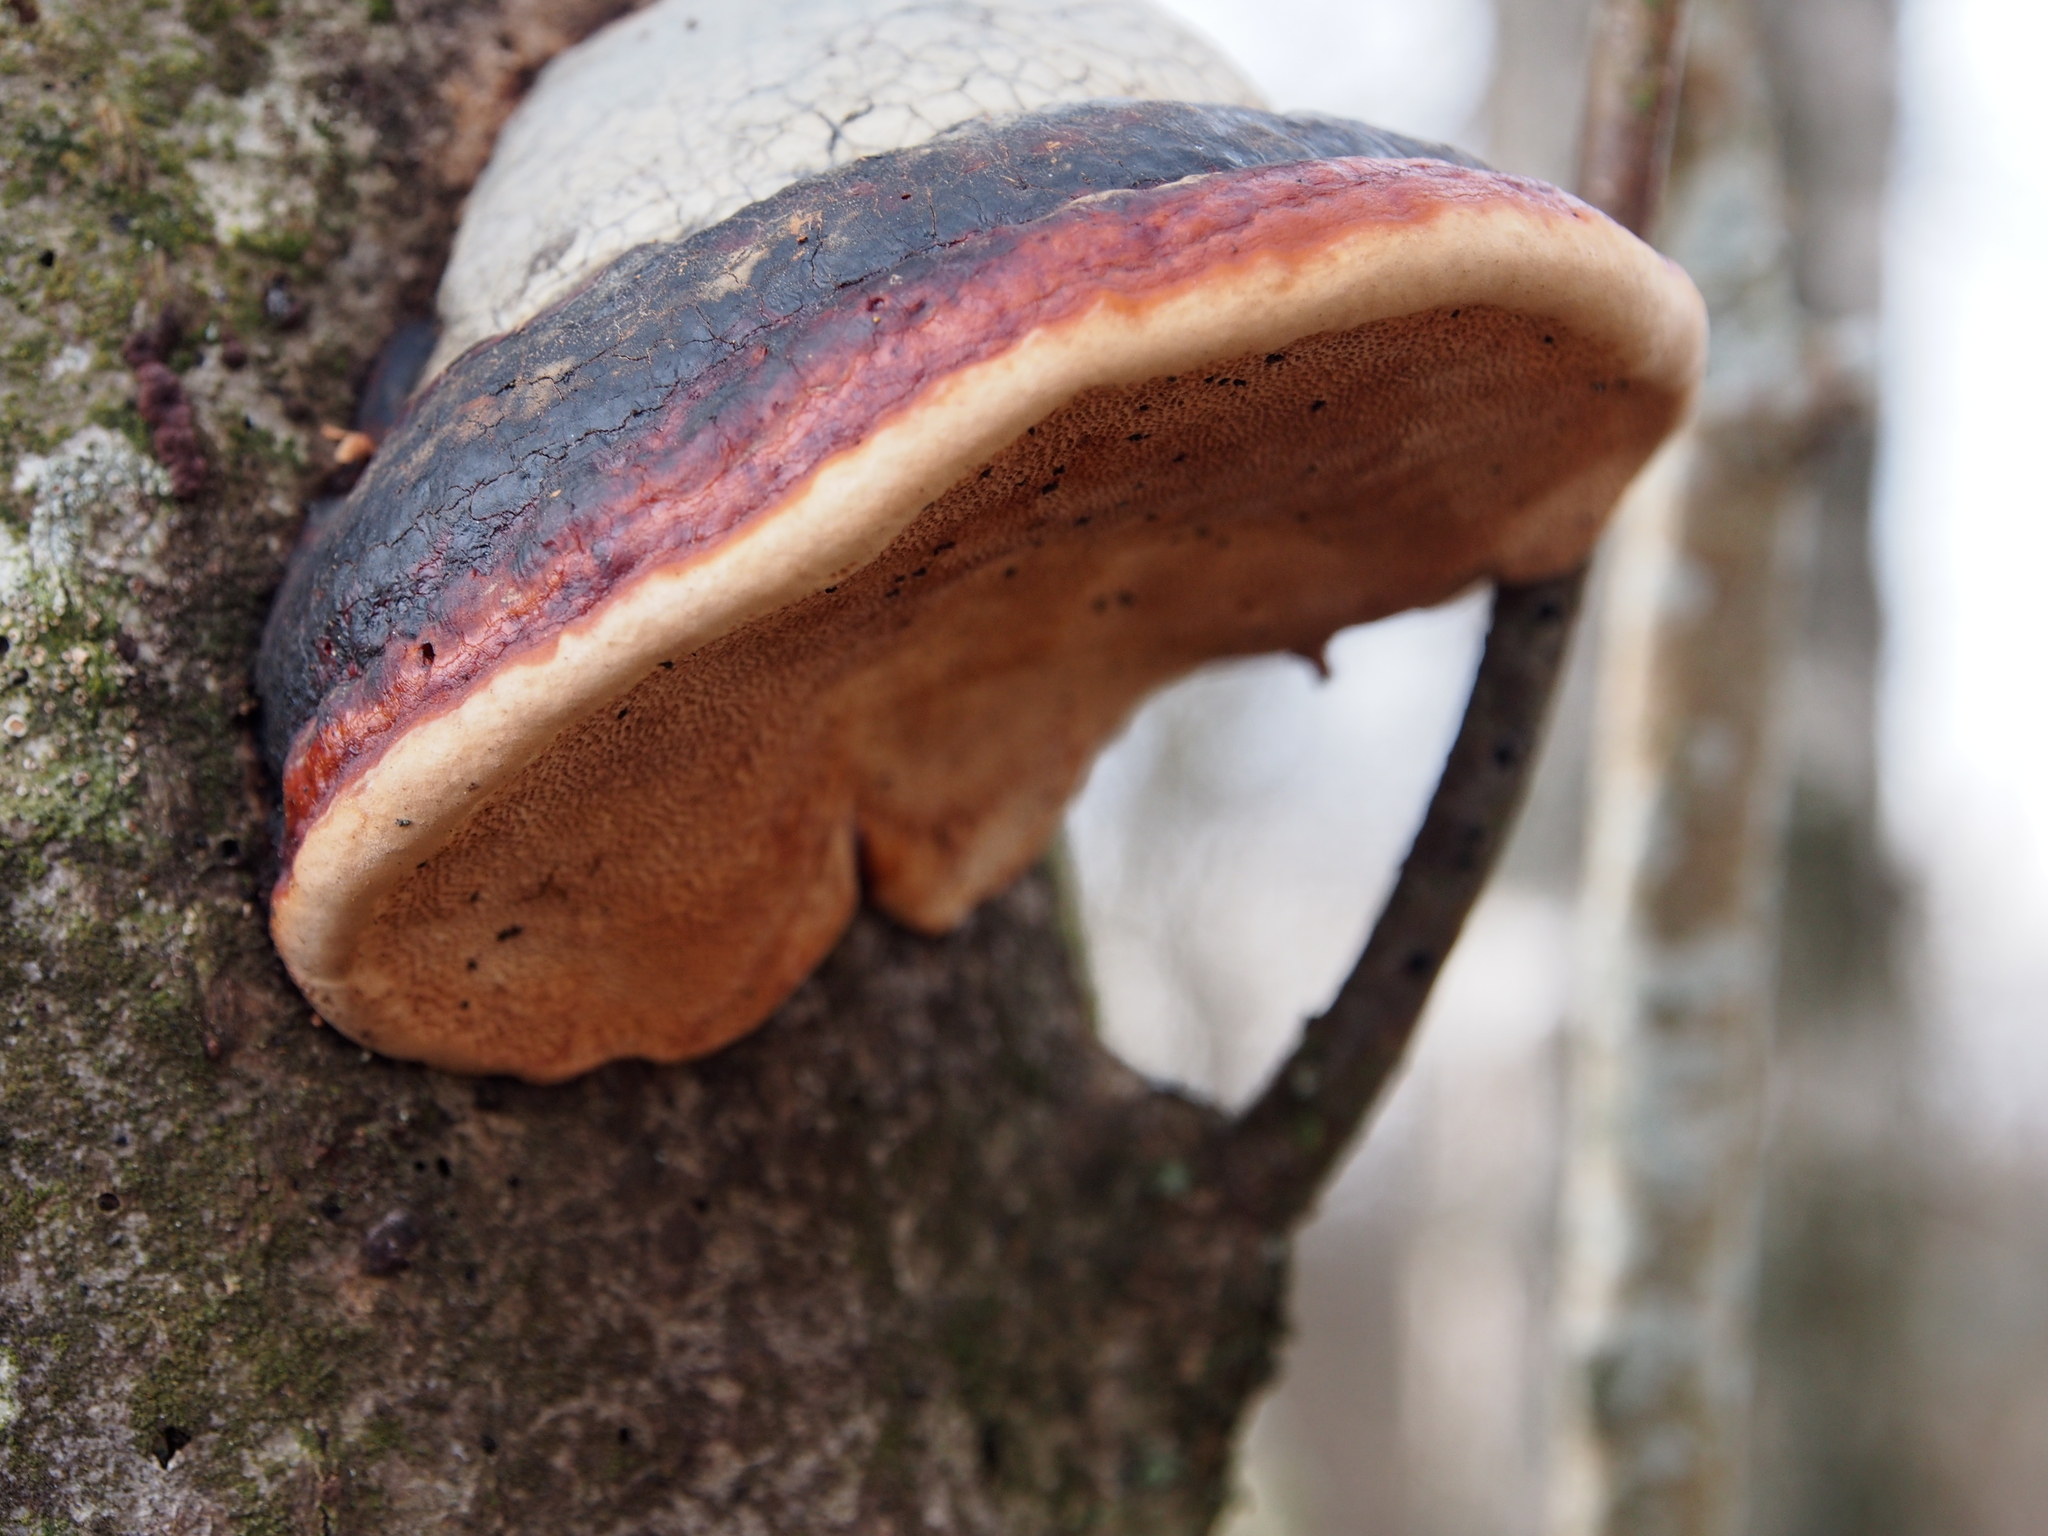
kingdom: Fungi
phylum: Basidiomycota
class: Agaricomycetes
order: Polyporales
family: Fomitopsidaceae
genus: Fomitopsis
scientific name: Fomitopsis pinicola
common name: Red-belted bracket
